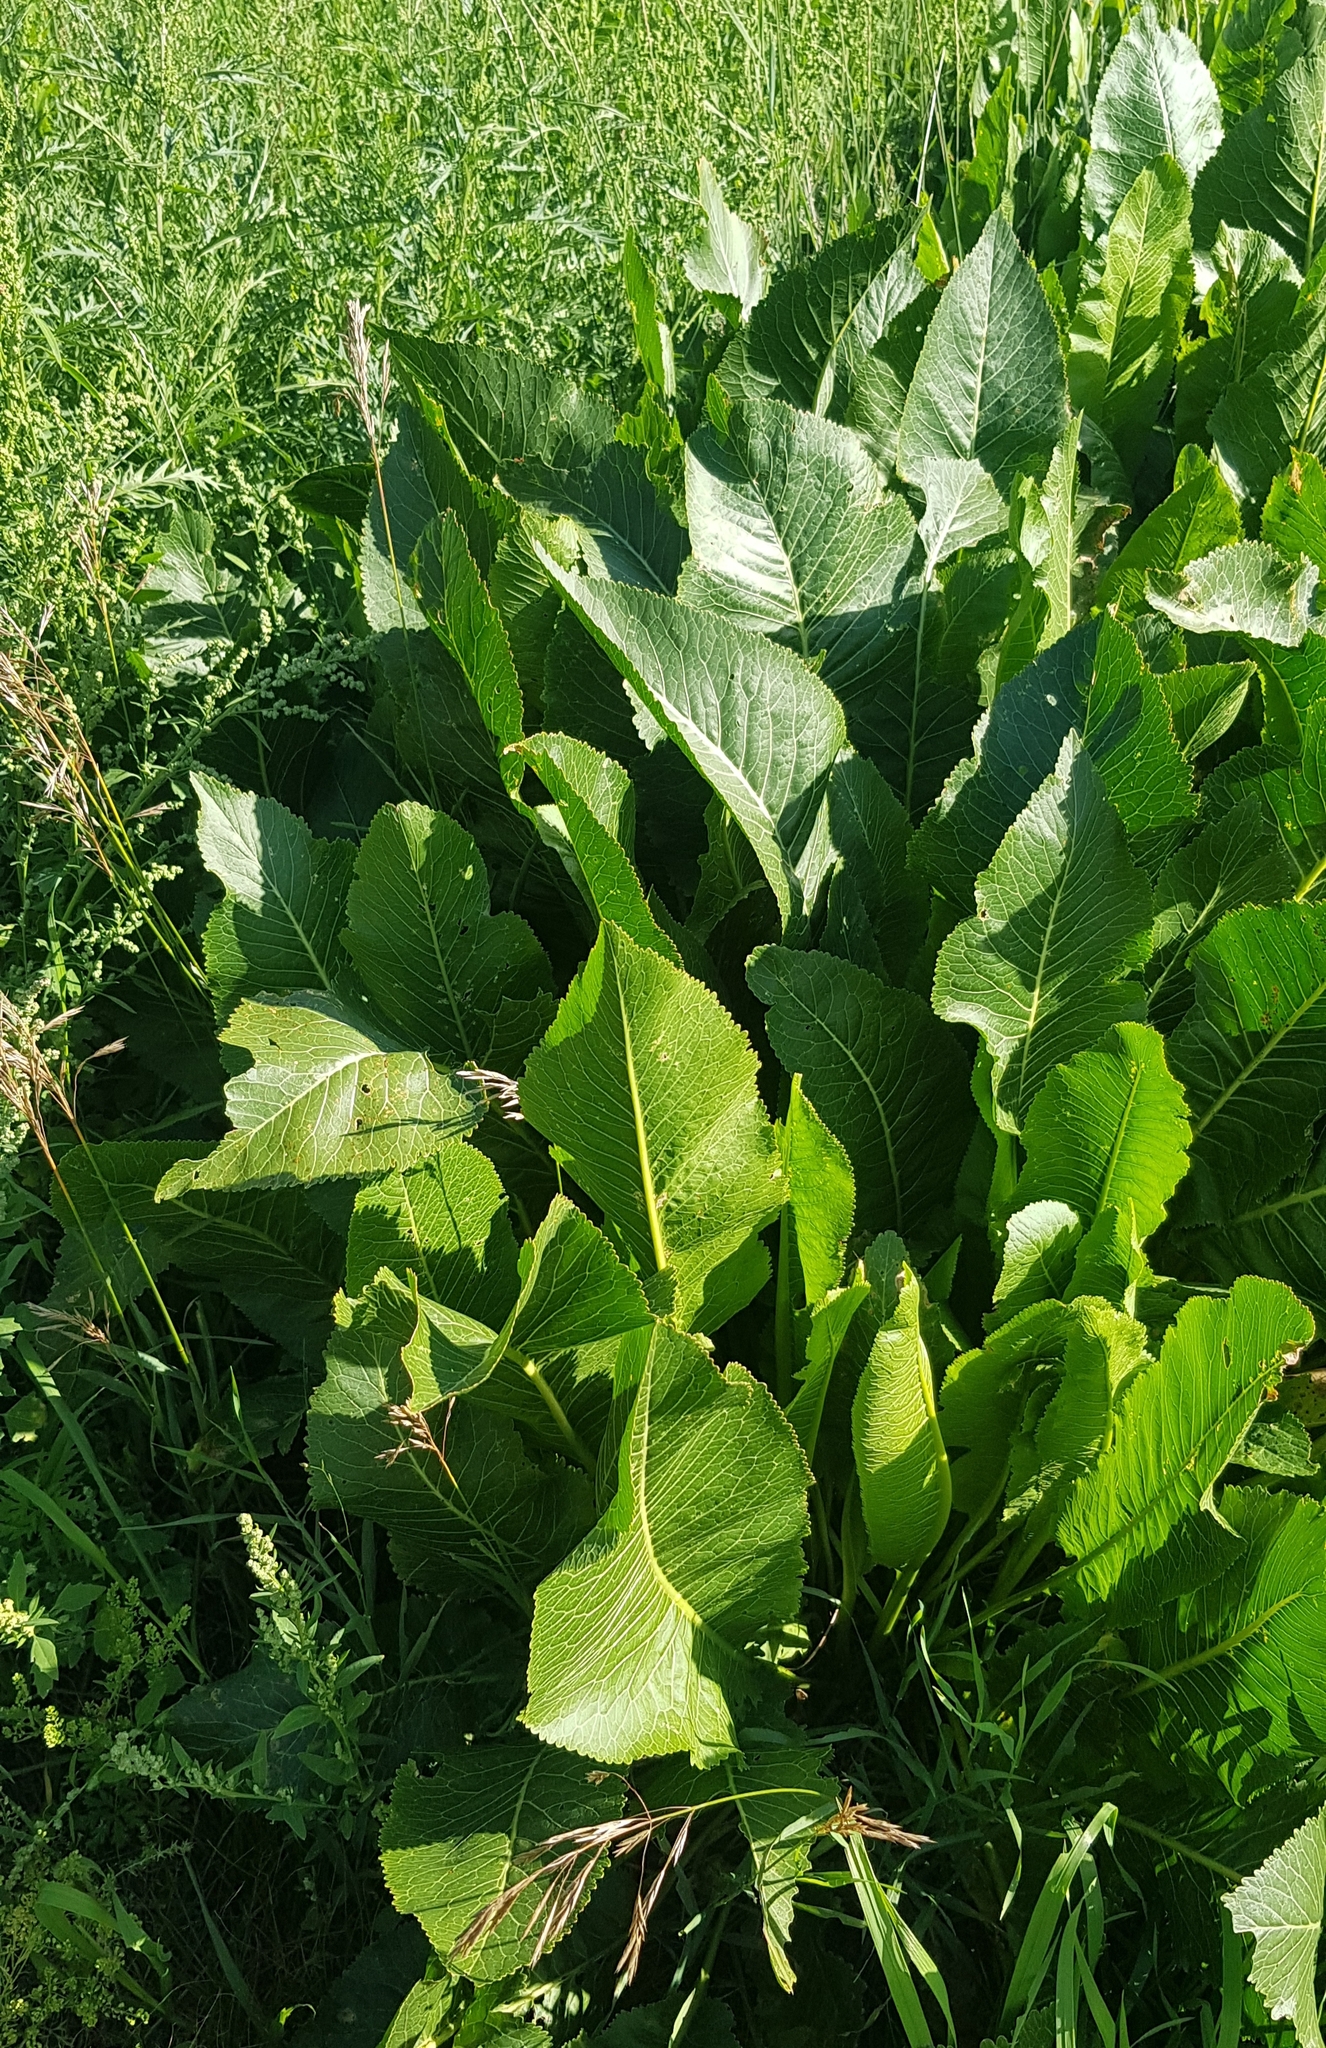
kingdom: Plantae
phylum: Tracheophyta
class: Magnoliopsida
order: Brassicales
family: Brassicaceae
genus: Armoracia
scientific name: Armoracia rusticana
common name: Horseradish
